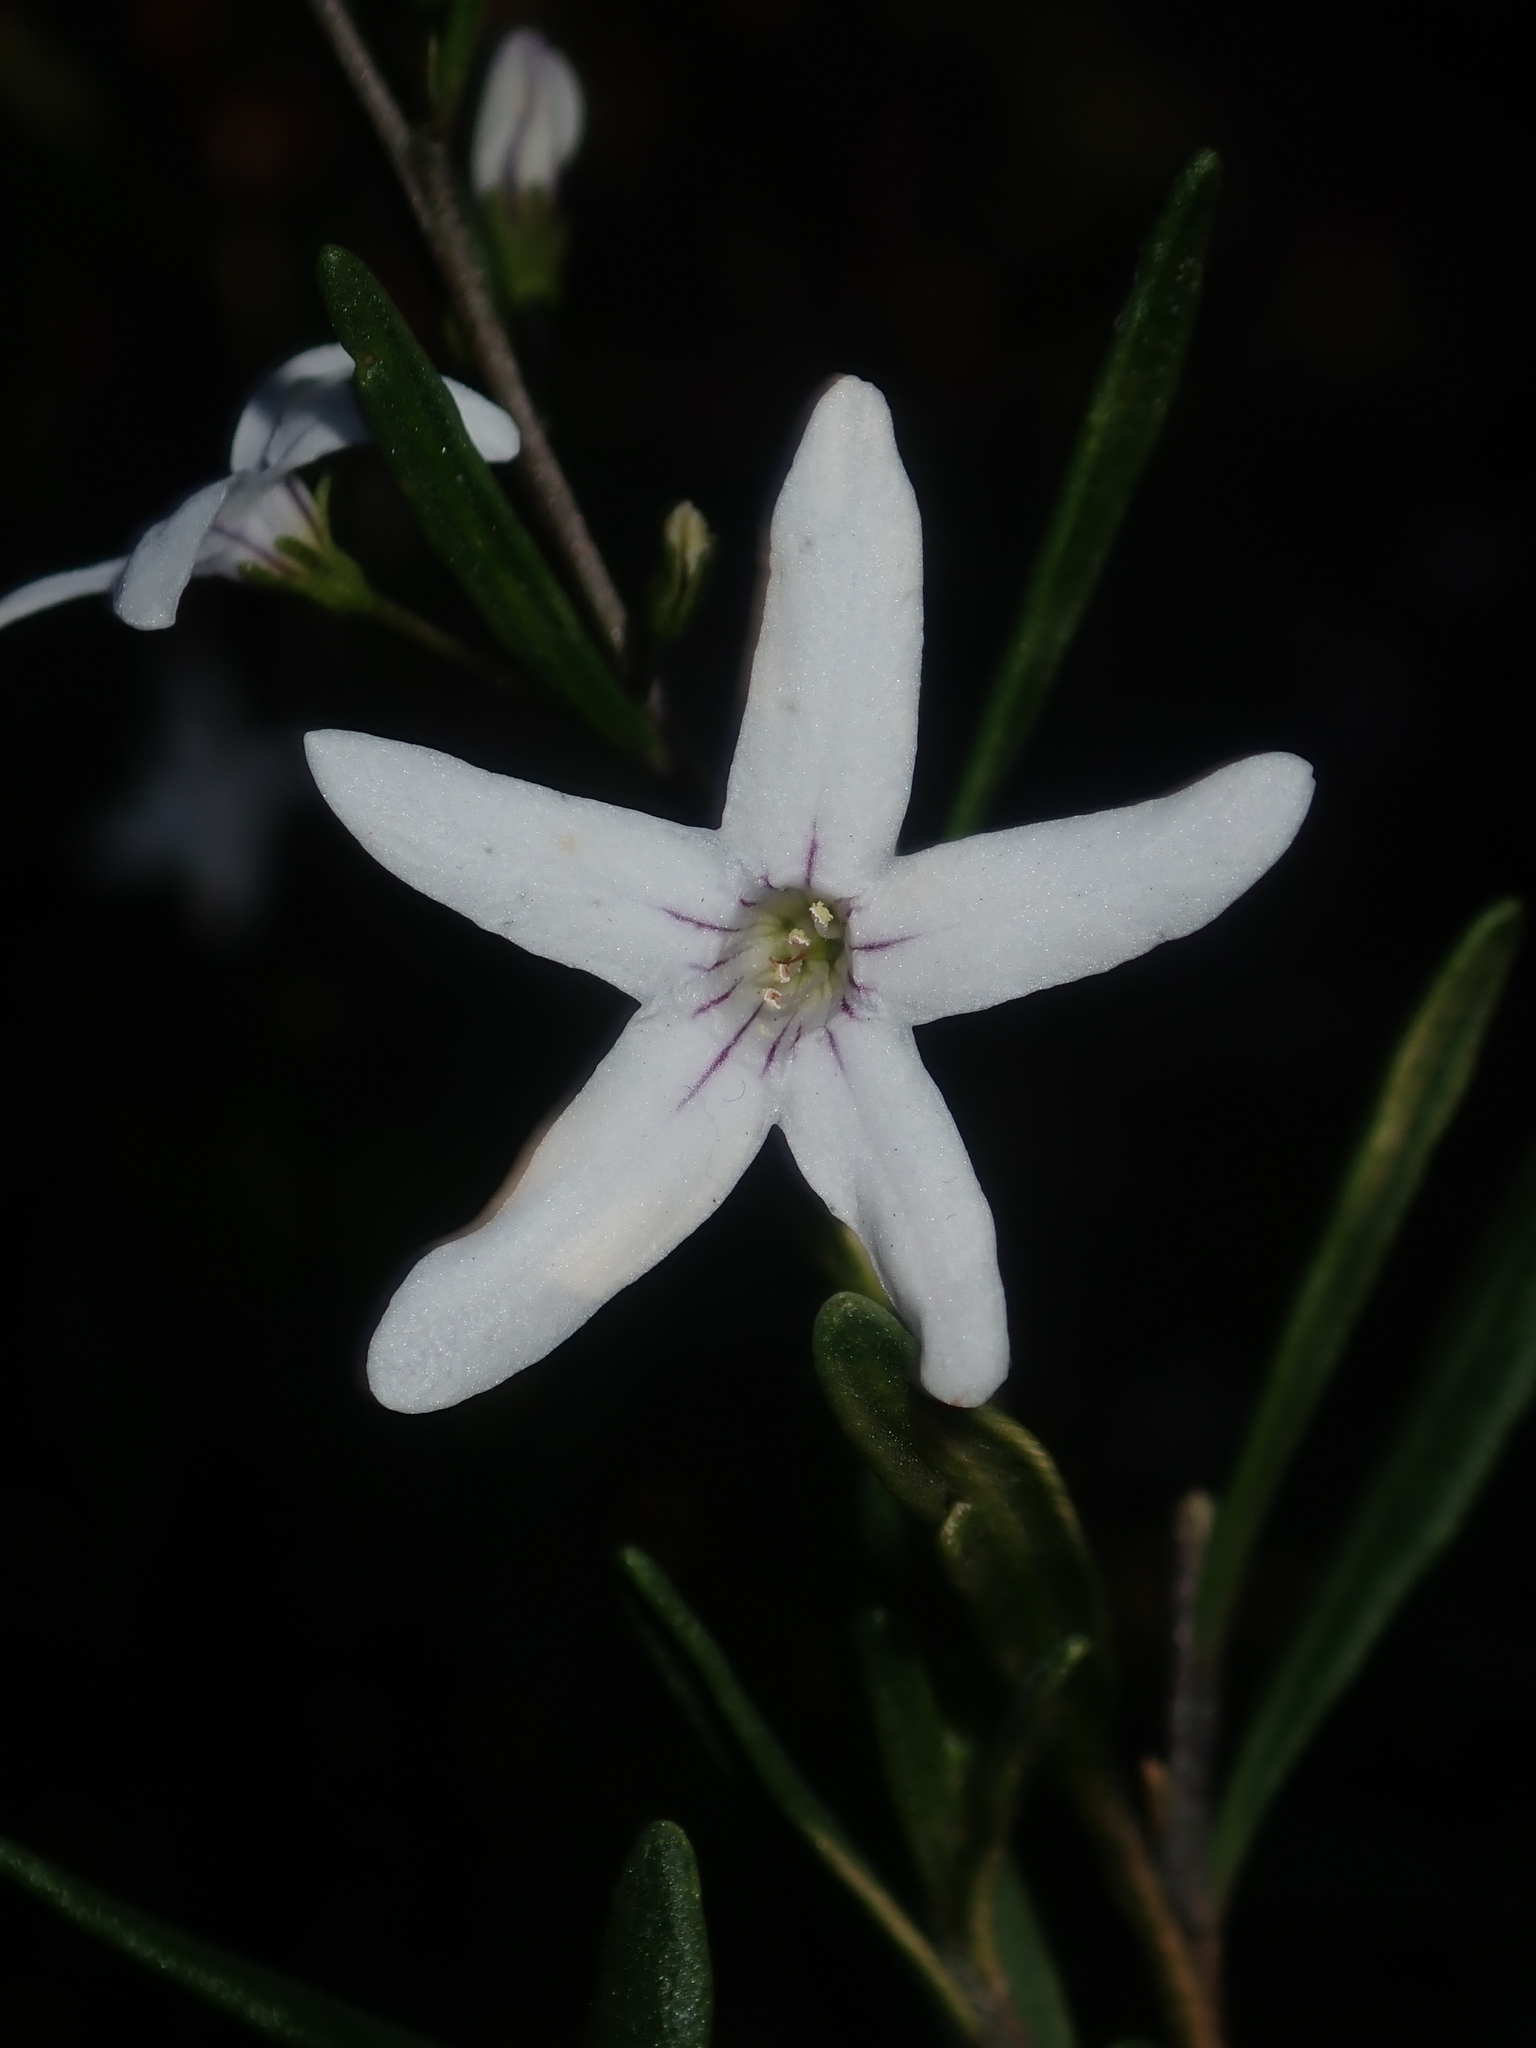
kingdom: Plantae
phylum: Tracheophyta
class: Magnoliopsida
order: Solanales
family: Solanaceae
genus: Cyphanthera
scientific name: Cyphanthera racemosa
